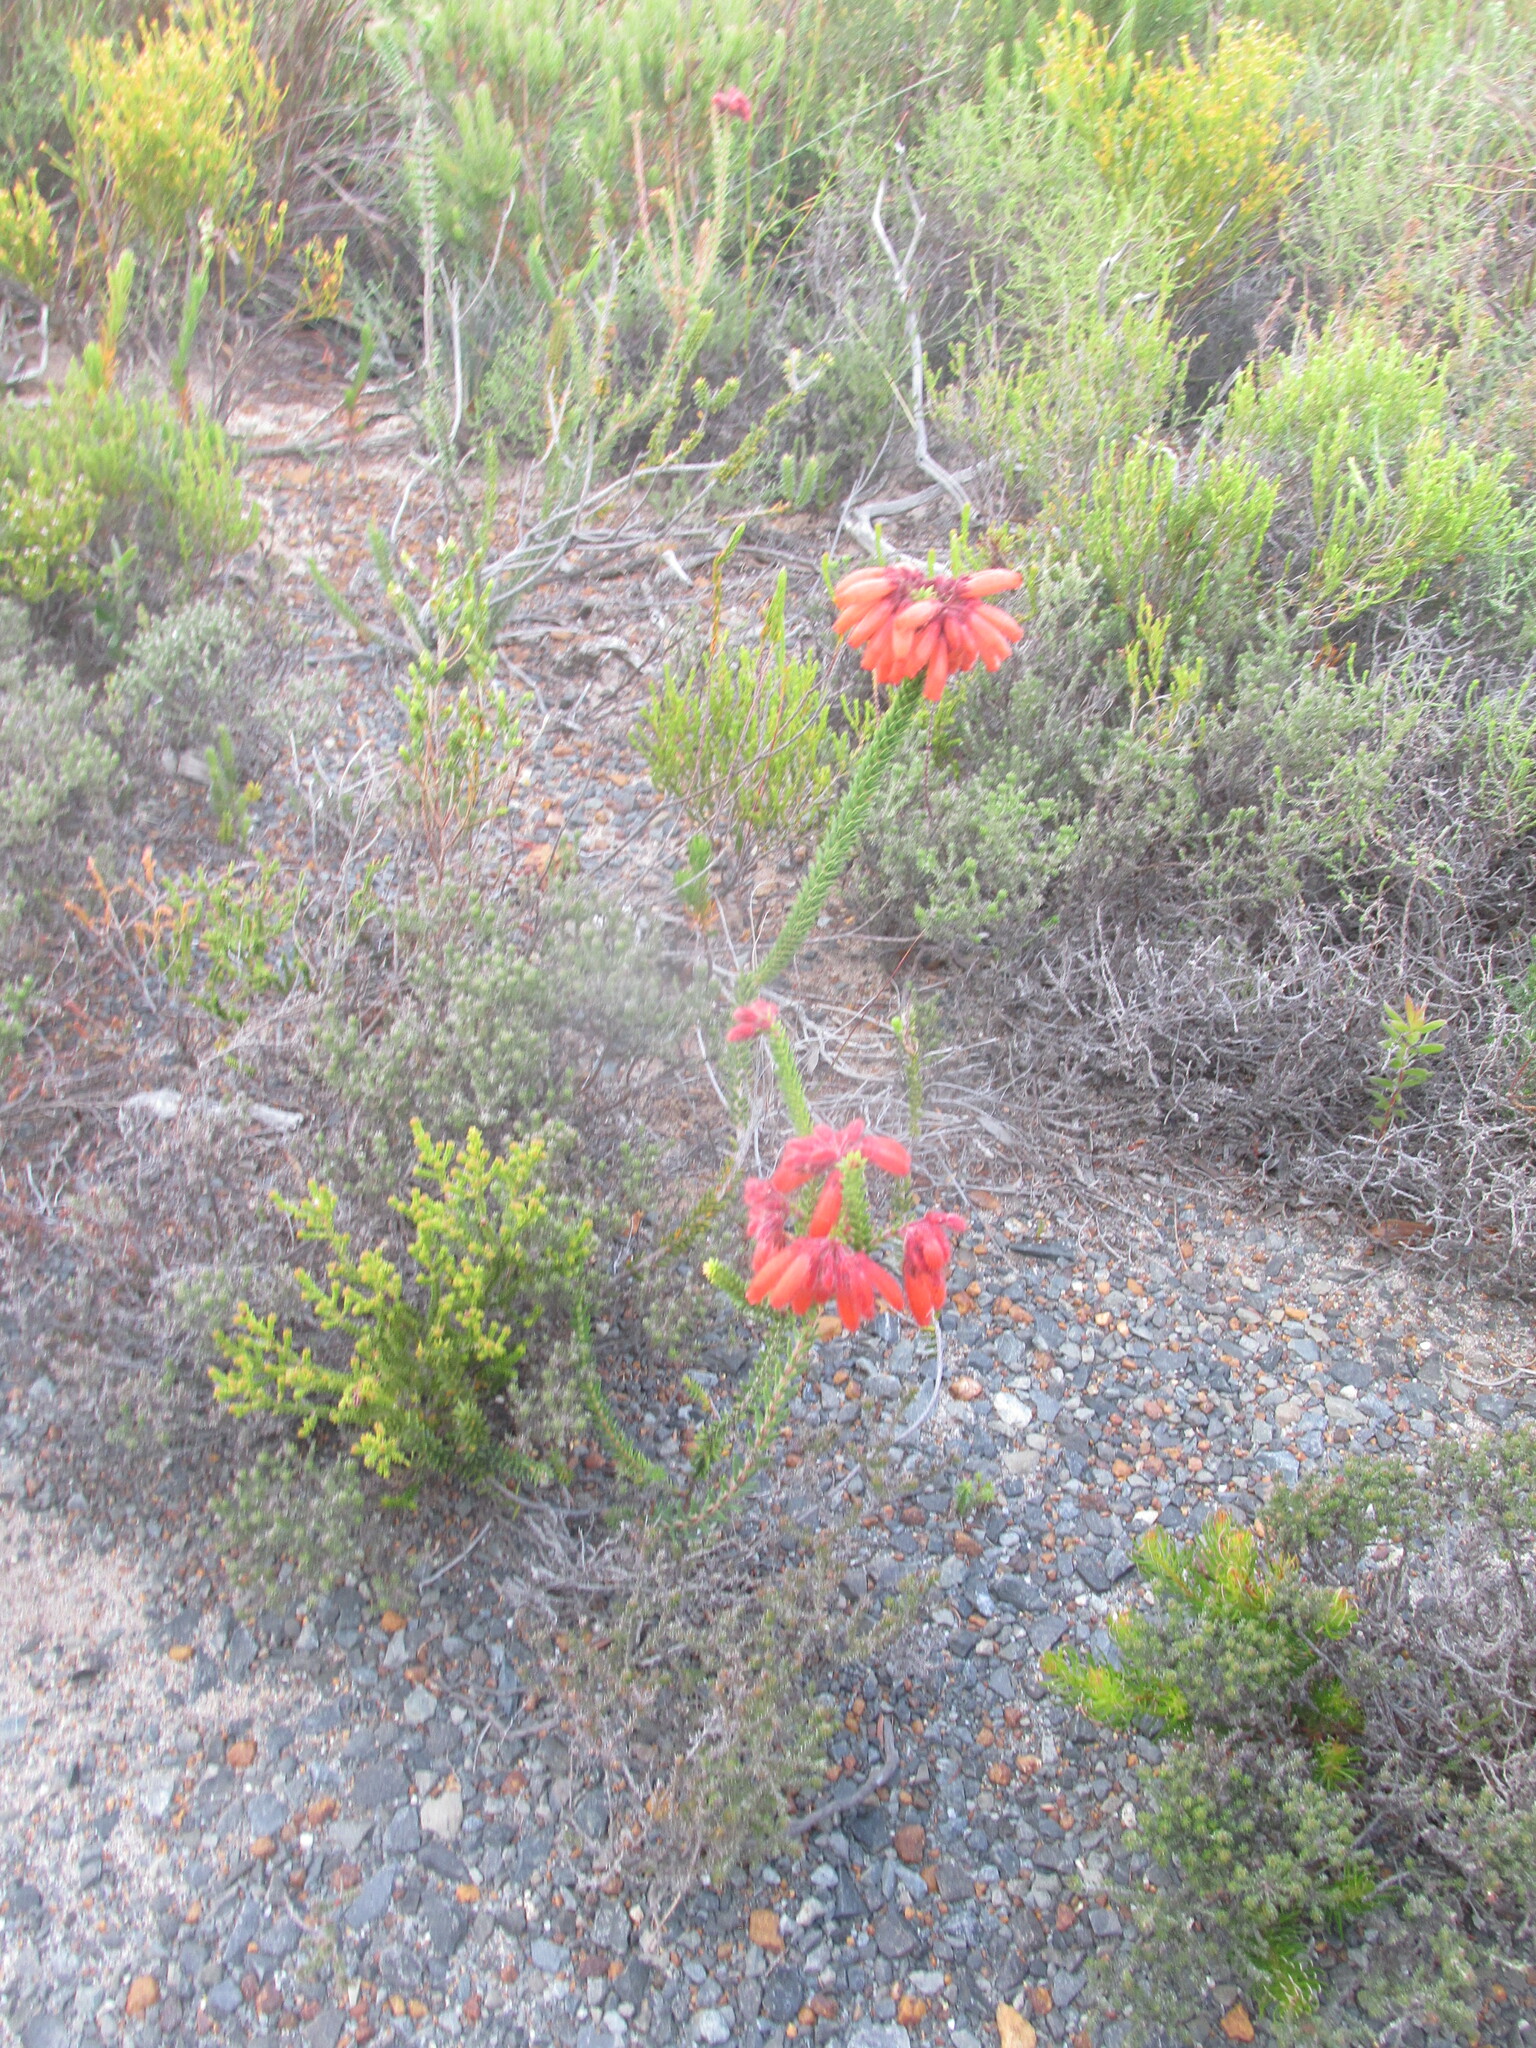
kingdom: Plantae
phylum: Tracheophyta
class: Magnoliopsida
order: Ericales
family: Ericaceae
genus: Erica
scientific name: Erica cerinthoides
